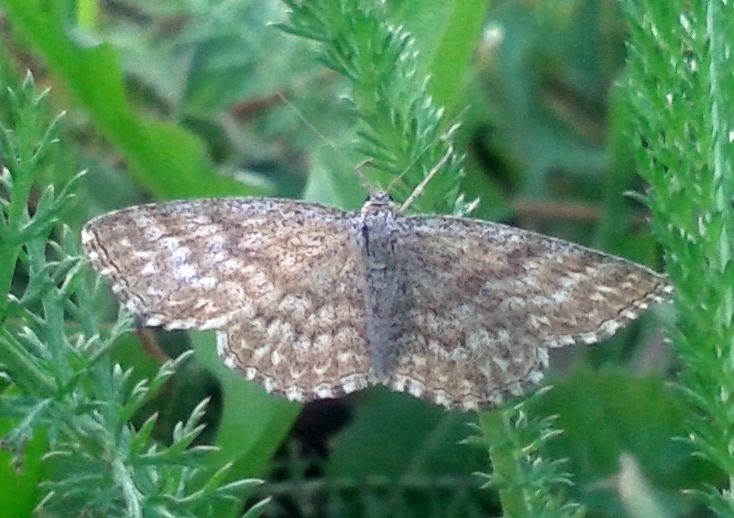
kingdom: Animalia
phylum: Arthropoda
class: Insecta
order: Lepidoptera
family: Geometridae
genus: Scopula
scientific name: Scopula immorata
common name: Lewes wave
